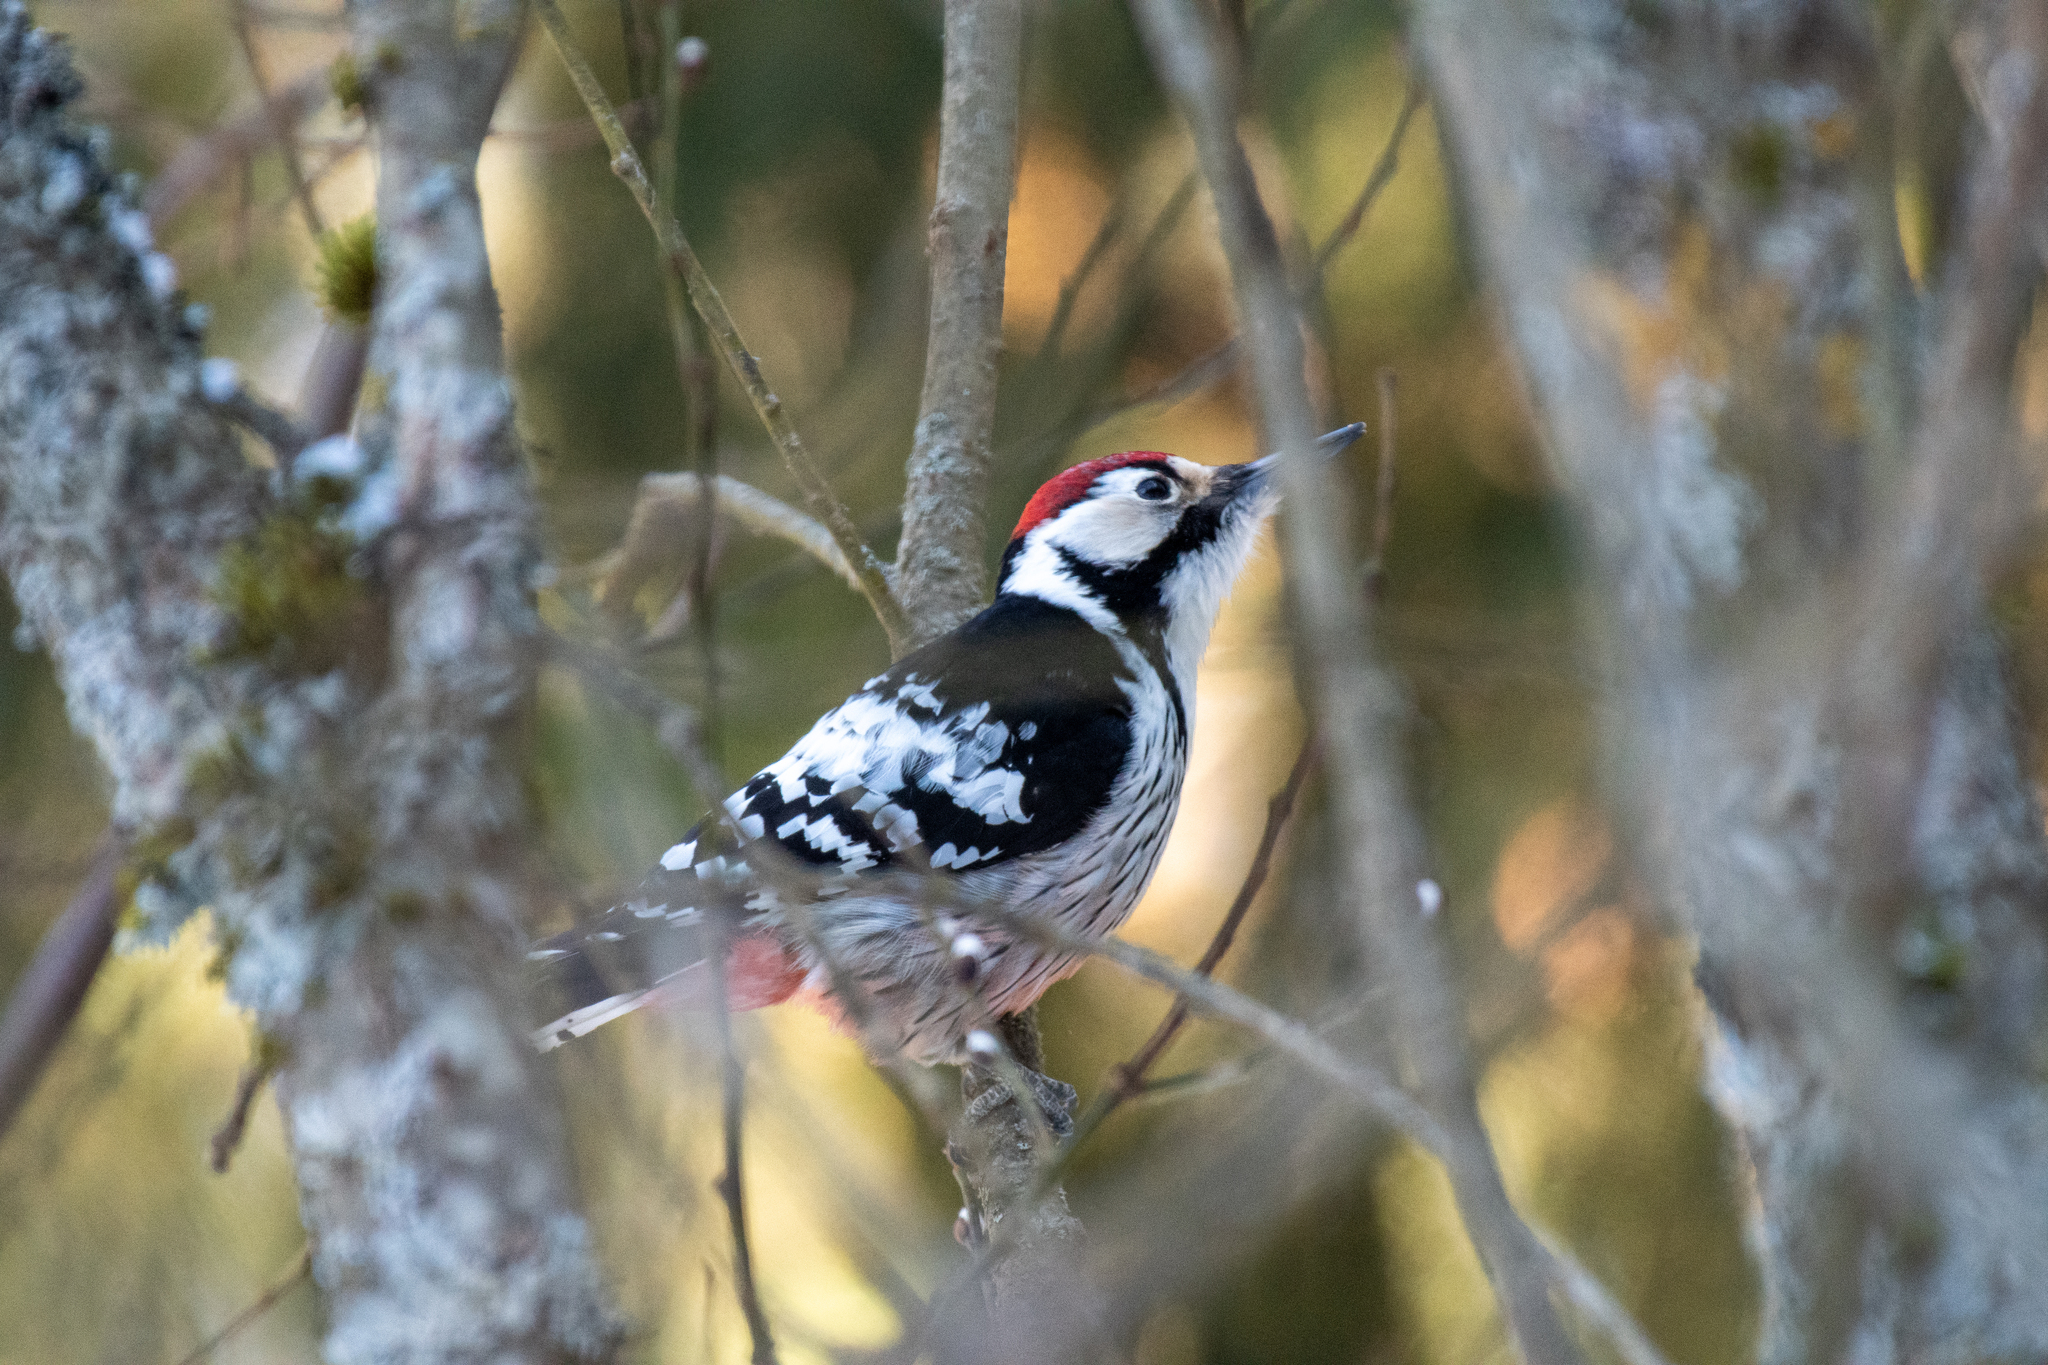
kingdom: Animalia
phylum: Chordata
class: Aves
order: Piciformes
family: Picidae
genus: Dendrocopos
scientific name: Dendrocopos leucotos
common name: White-backed woodpecker
